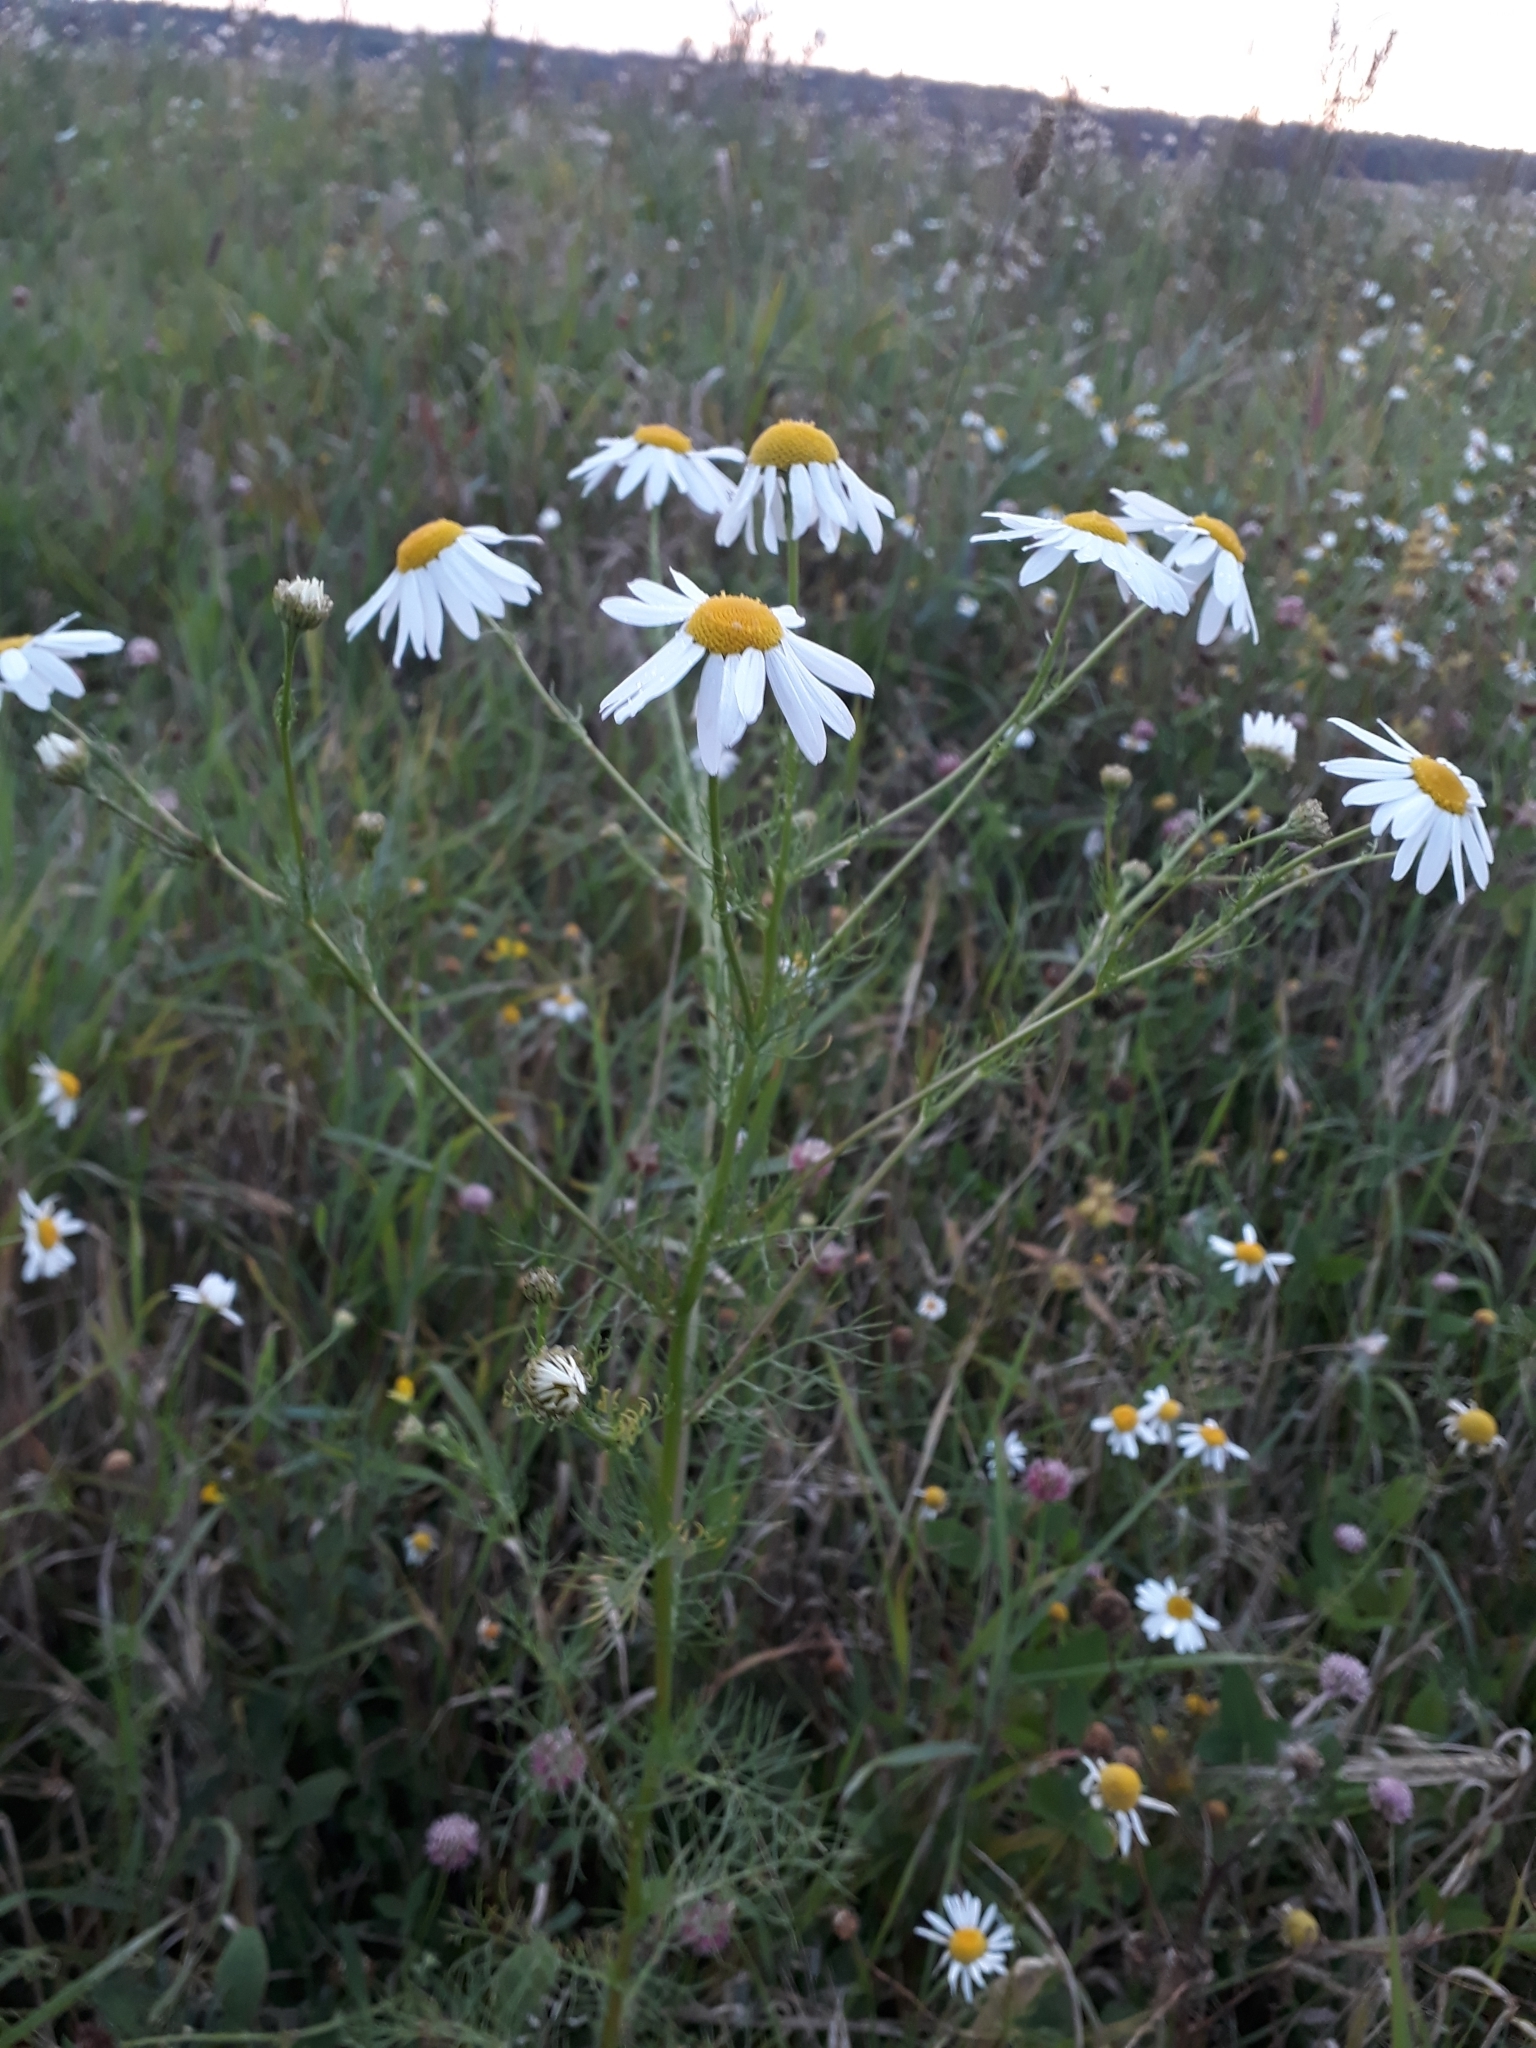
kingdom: Plantae
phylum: Tracheophyta
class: Magnoliopsida
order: Asterales
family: Asteraceae
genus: Tripleurospermum
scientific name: Tripleurospermum inodorum
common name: Scentless mayweed
